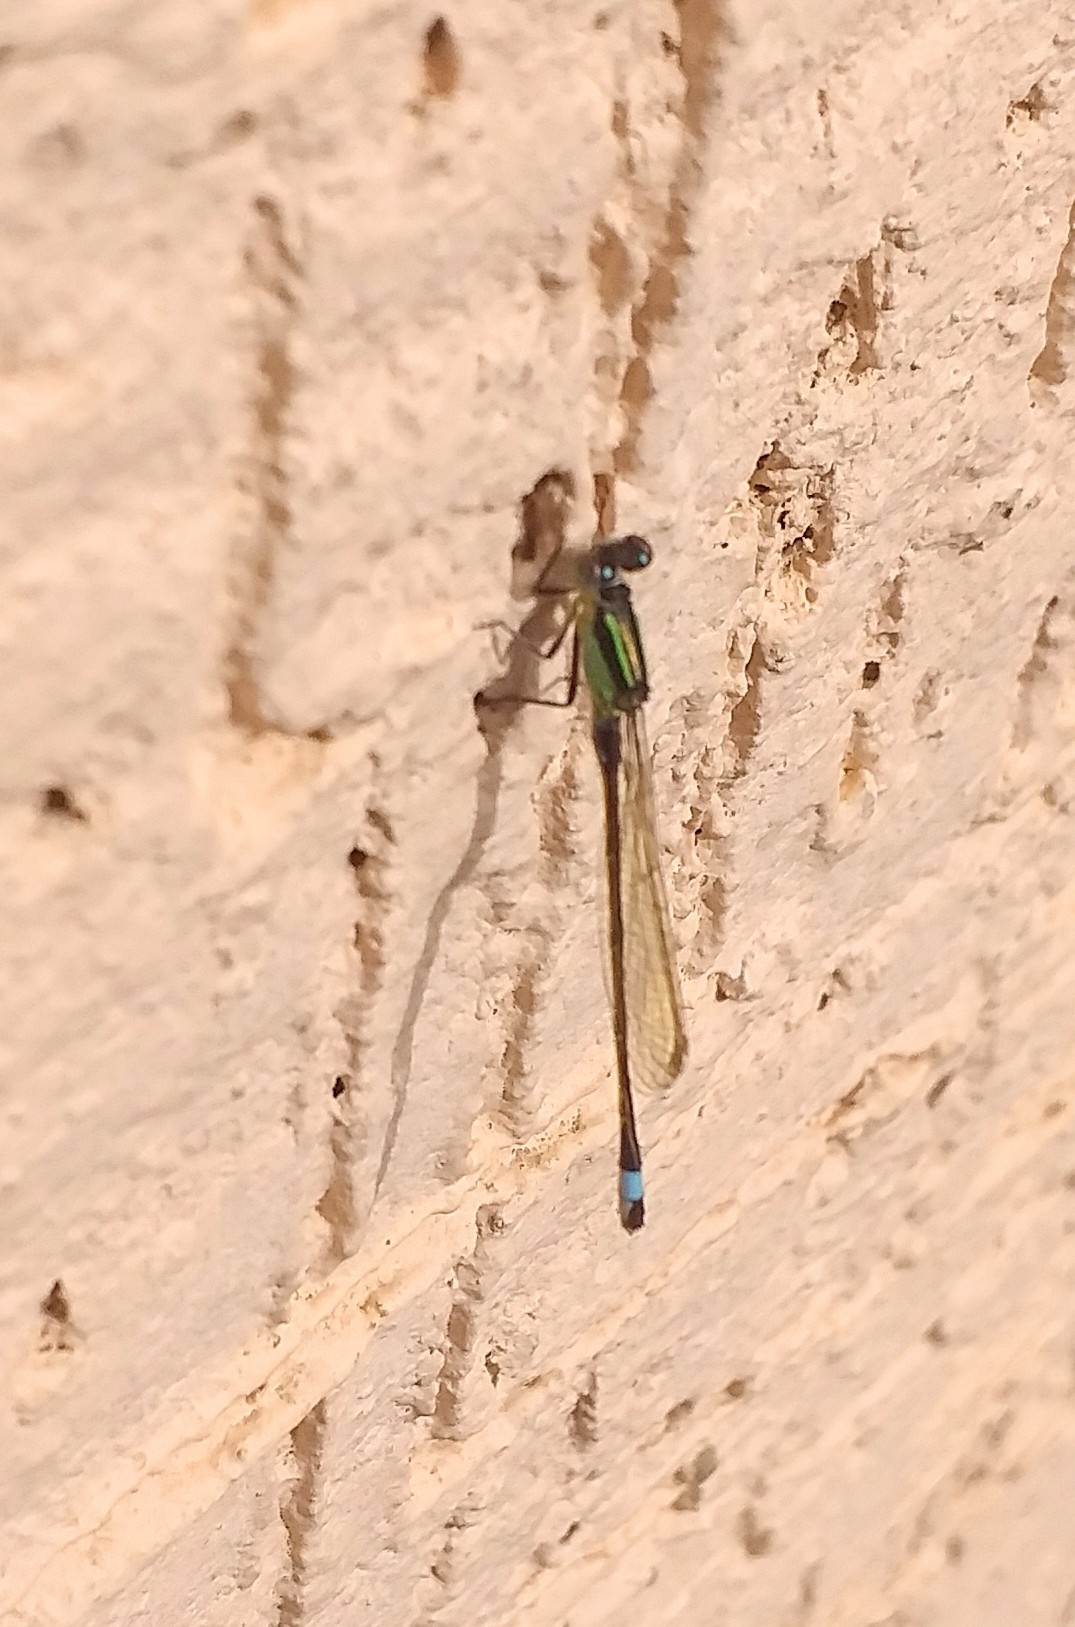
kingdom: Animalia
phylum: Arthropoda
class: Insecta
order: Odonata
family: Coenagrionidae
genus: Ischnura
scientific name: Ischnura senegalensis
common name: Tropical bluetail
